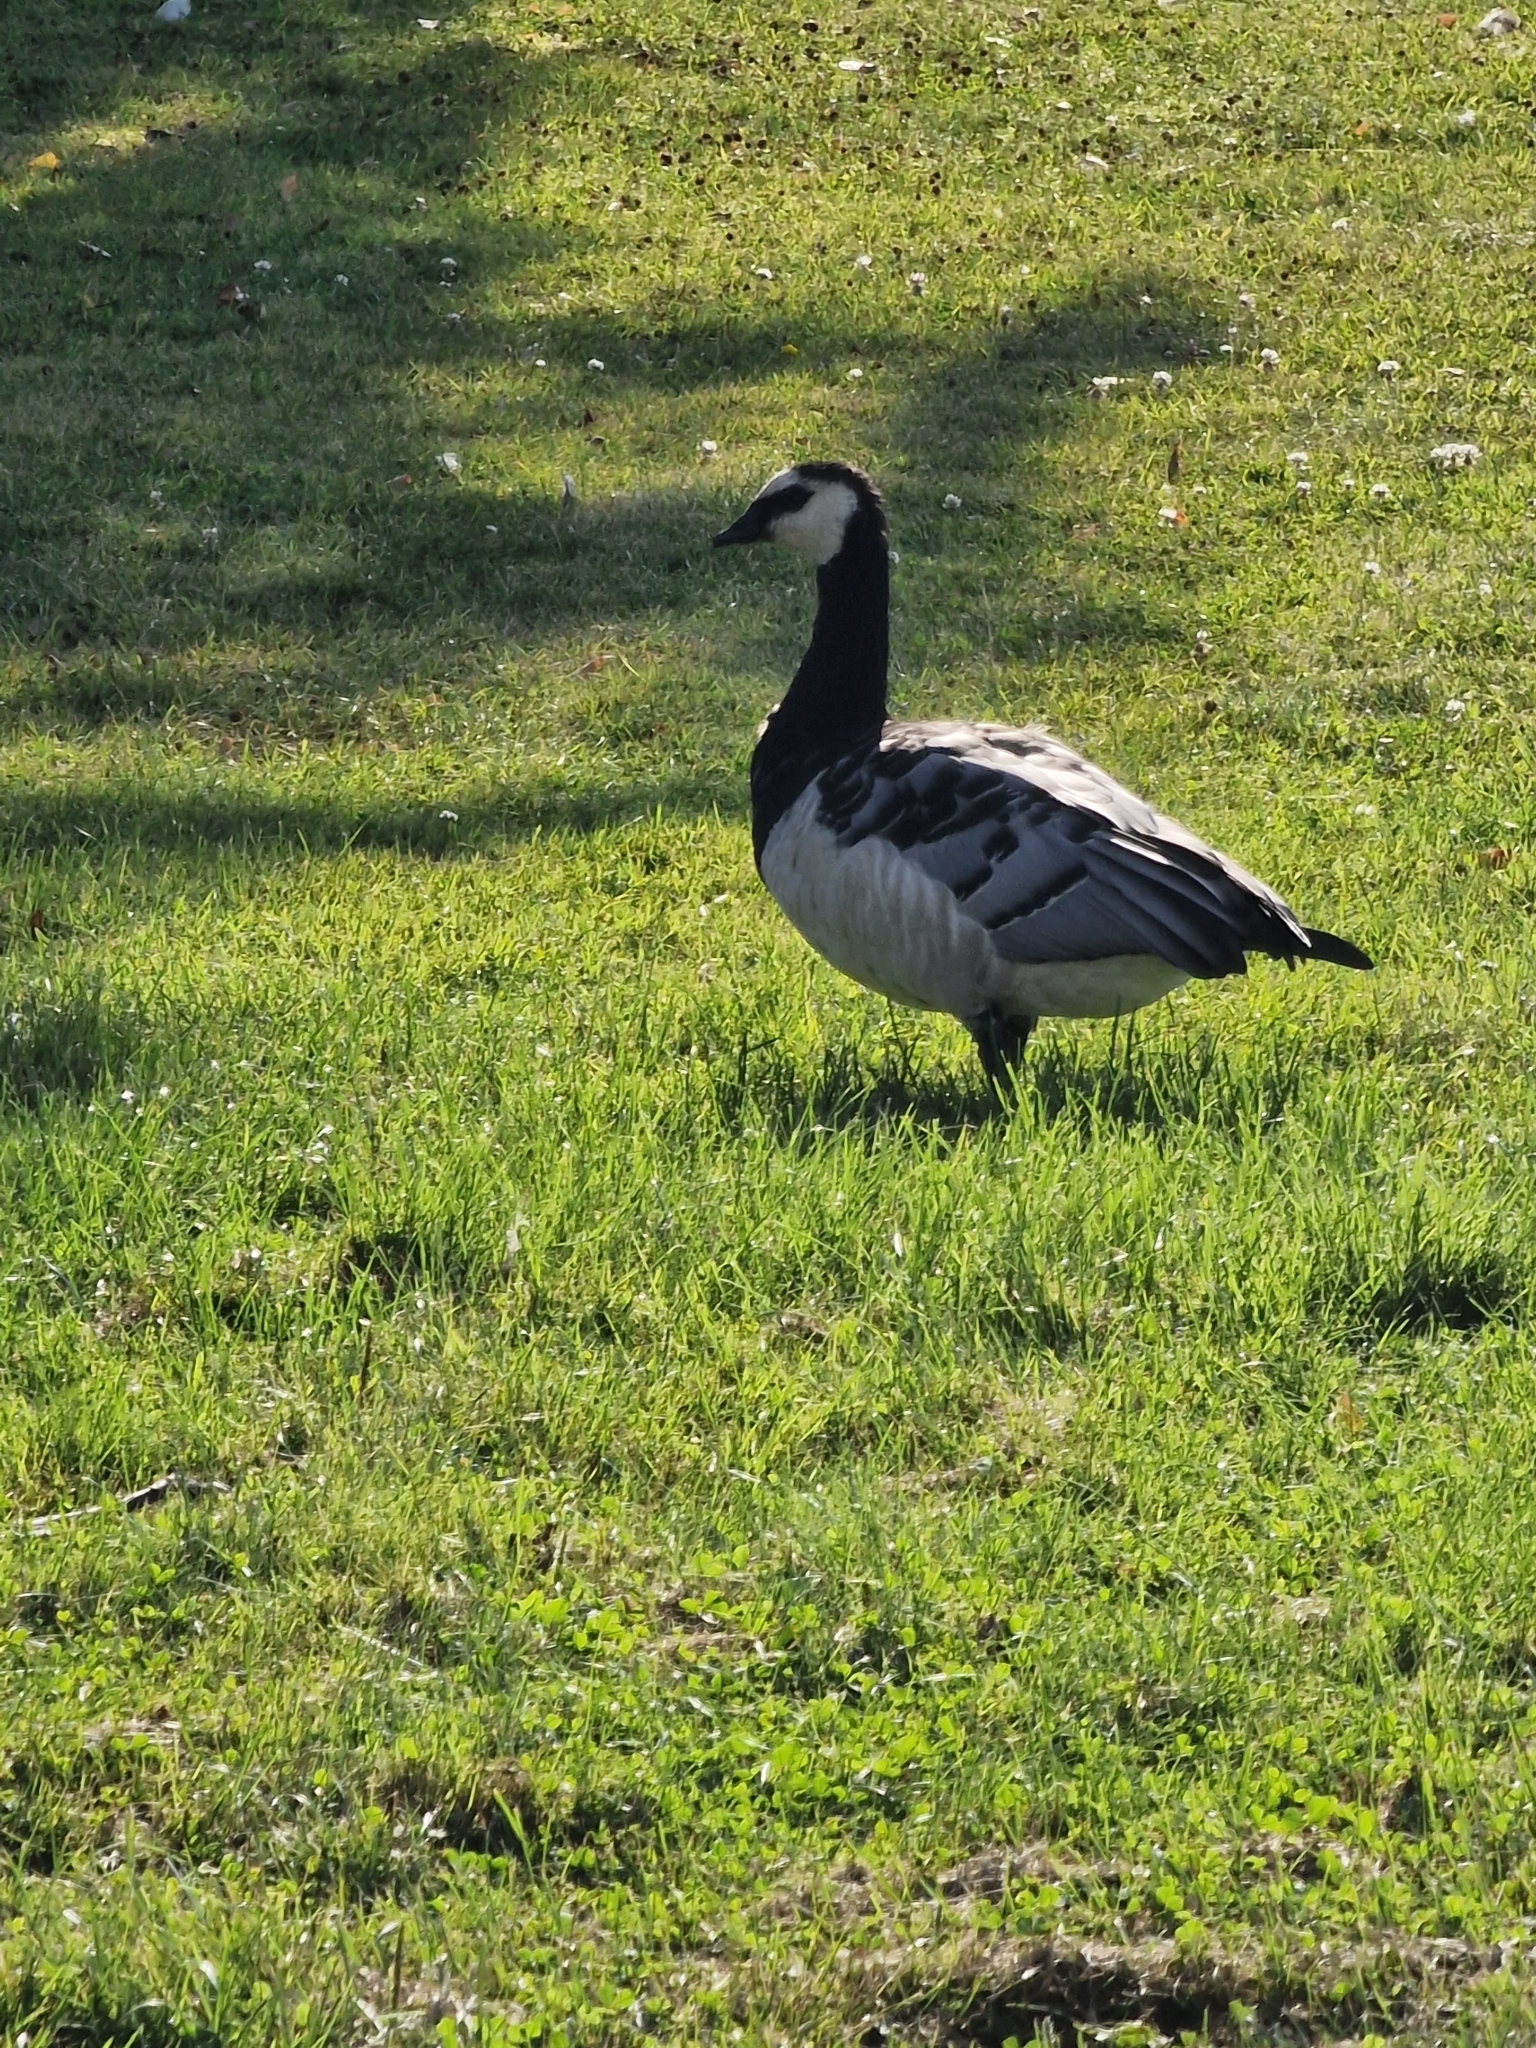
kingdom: Animalia
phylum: Chordata
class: Aves
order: Anseriformes
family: Anatidae
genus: Branta
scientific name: Branta leucopsis
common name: Barnacle goose
